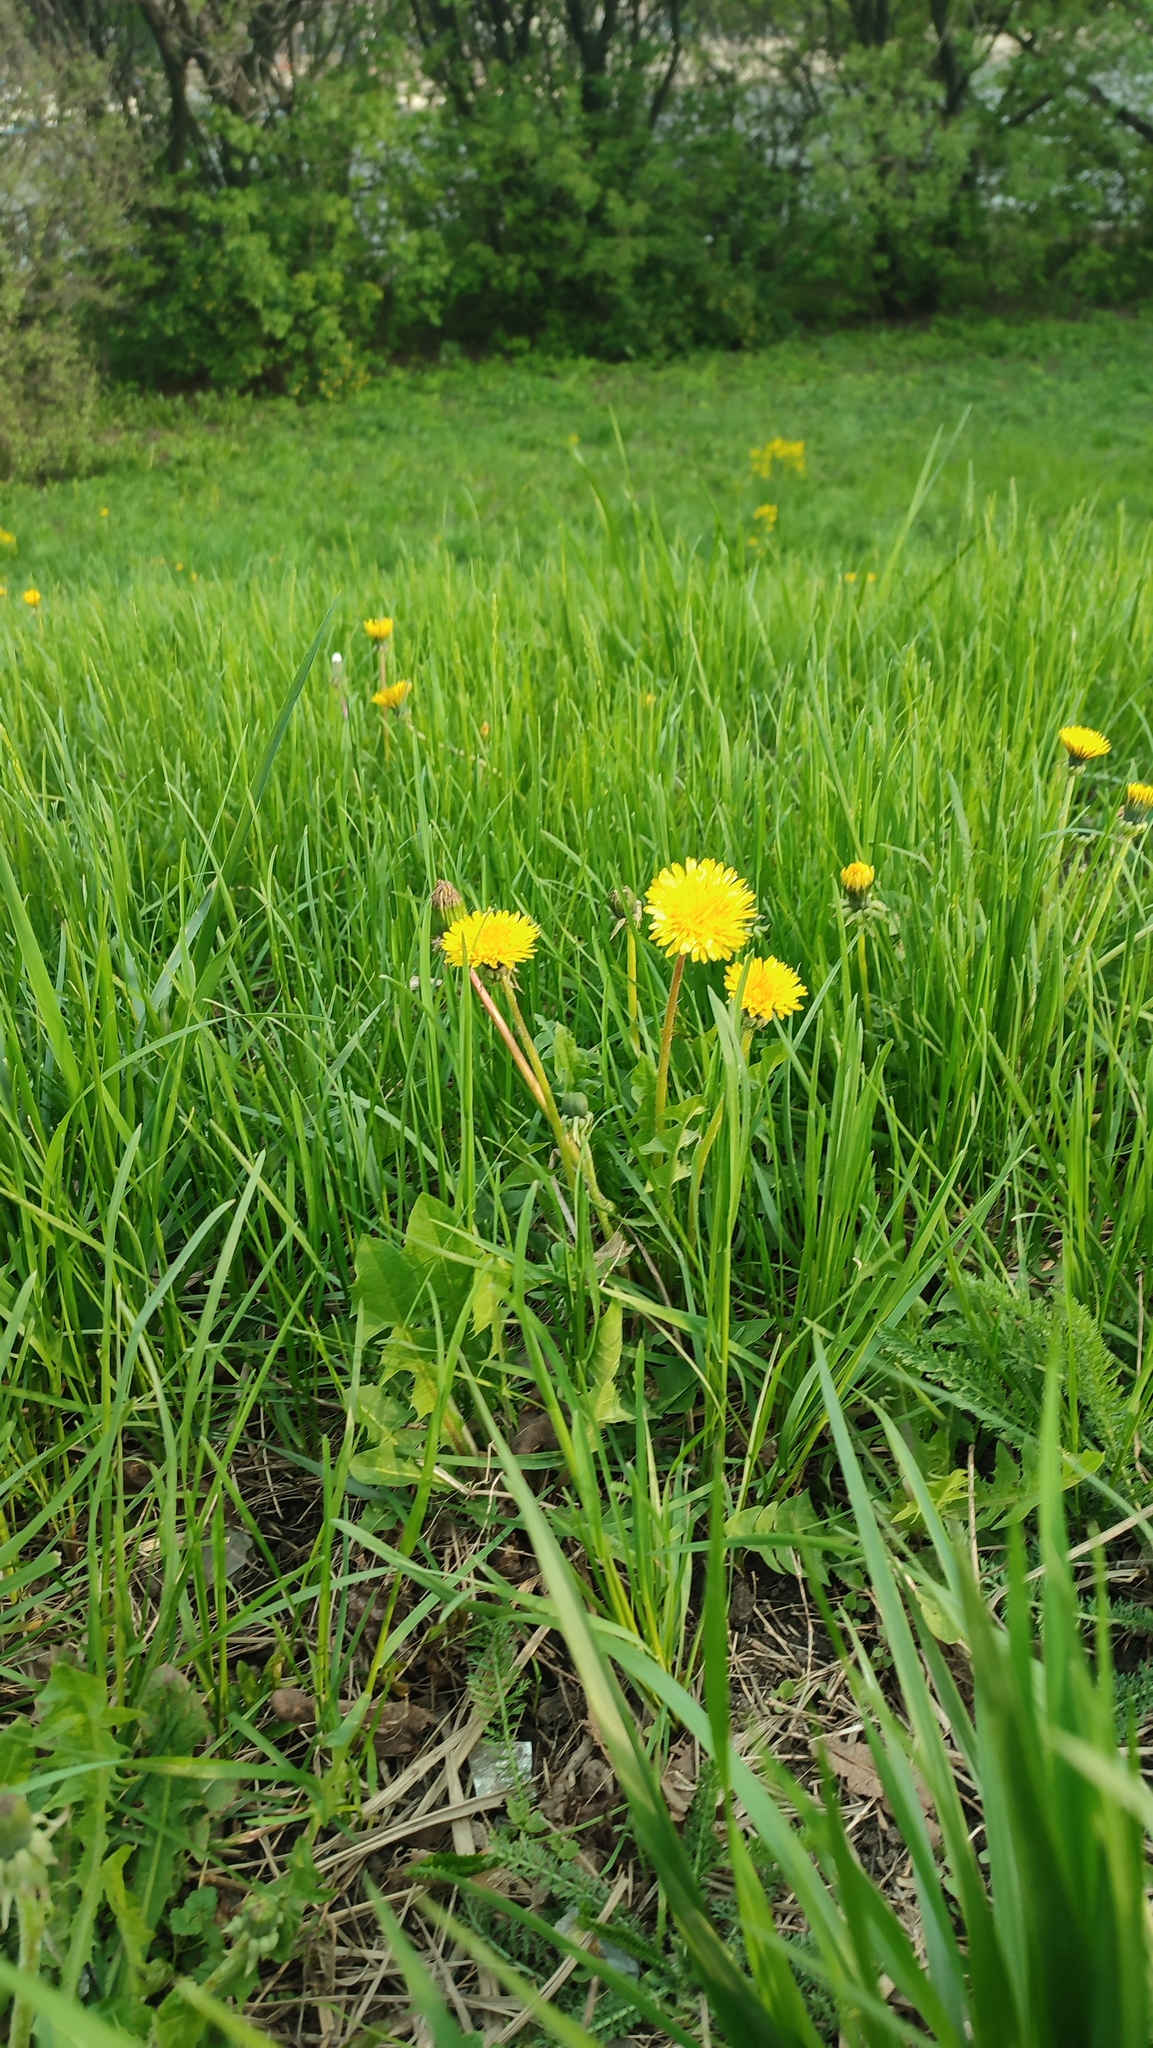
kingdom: Plantae
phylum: Tracheophyta
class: Magnoliopsida
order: Asterales
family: Asteraceae
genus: Taraxacum
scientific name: Taraxacum officinale
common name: Common dandelion
